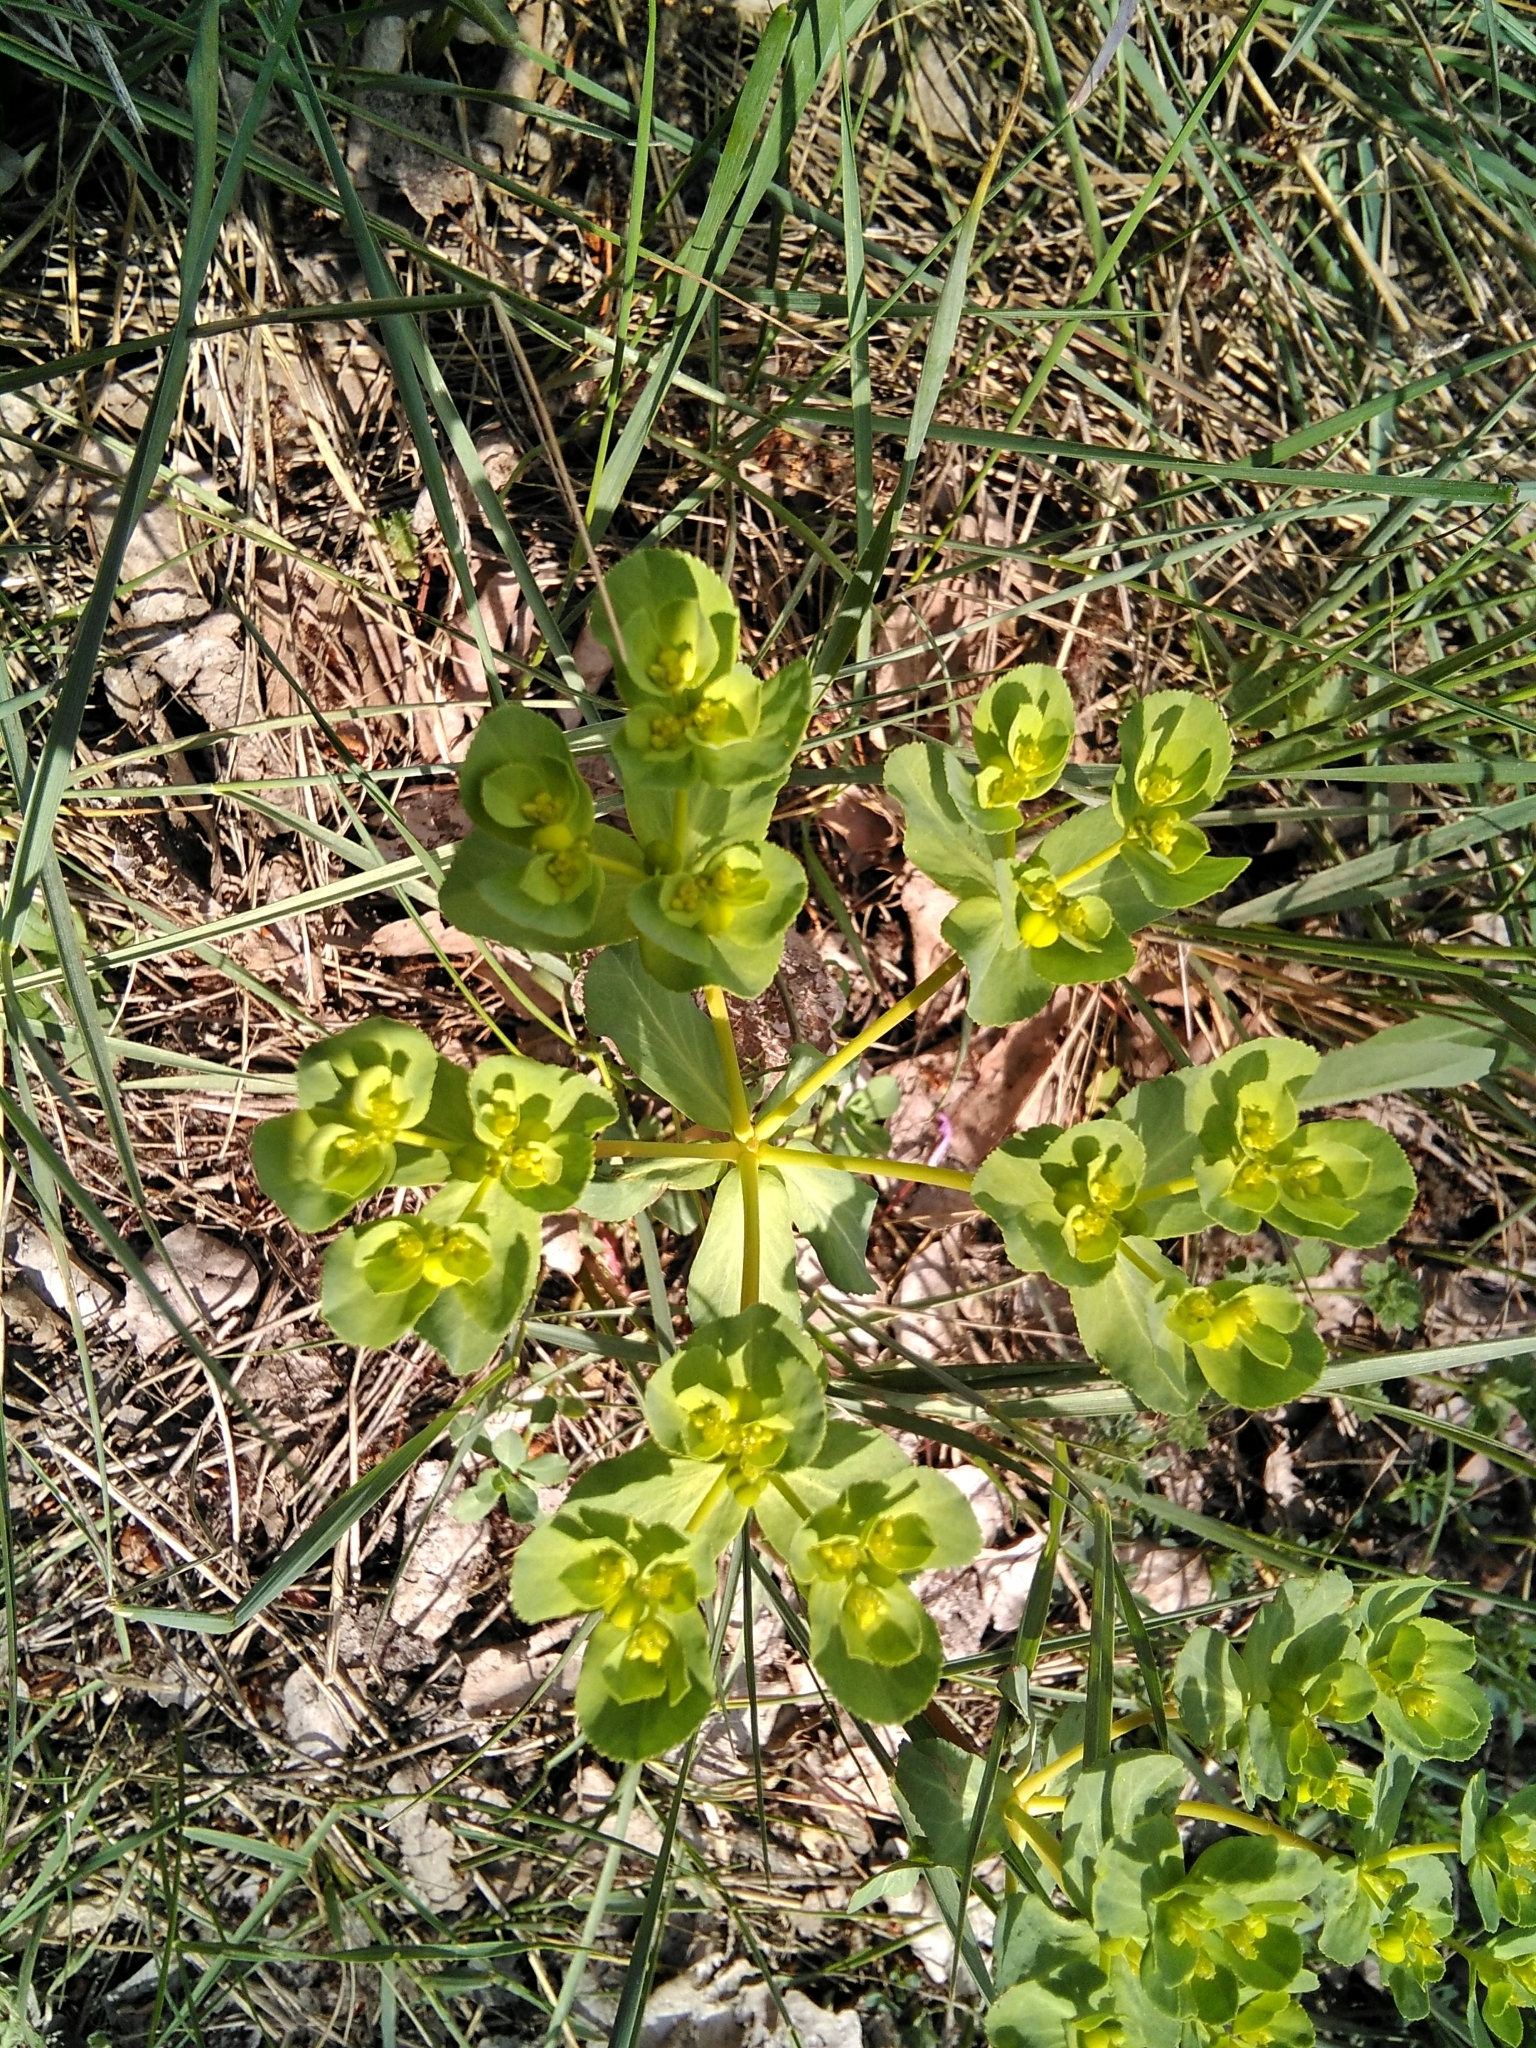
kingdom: Plantae
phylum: Tracheophyta
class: Magnoliopsida
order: Malpighiales
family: Euphorbiaceae
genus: Euphorbia
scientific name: Euphorbia helioscopia
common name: Sun spurge
